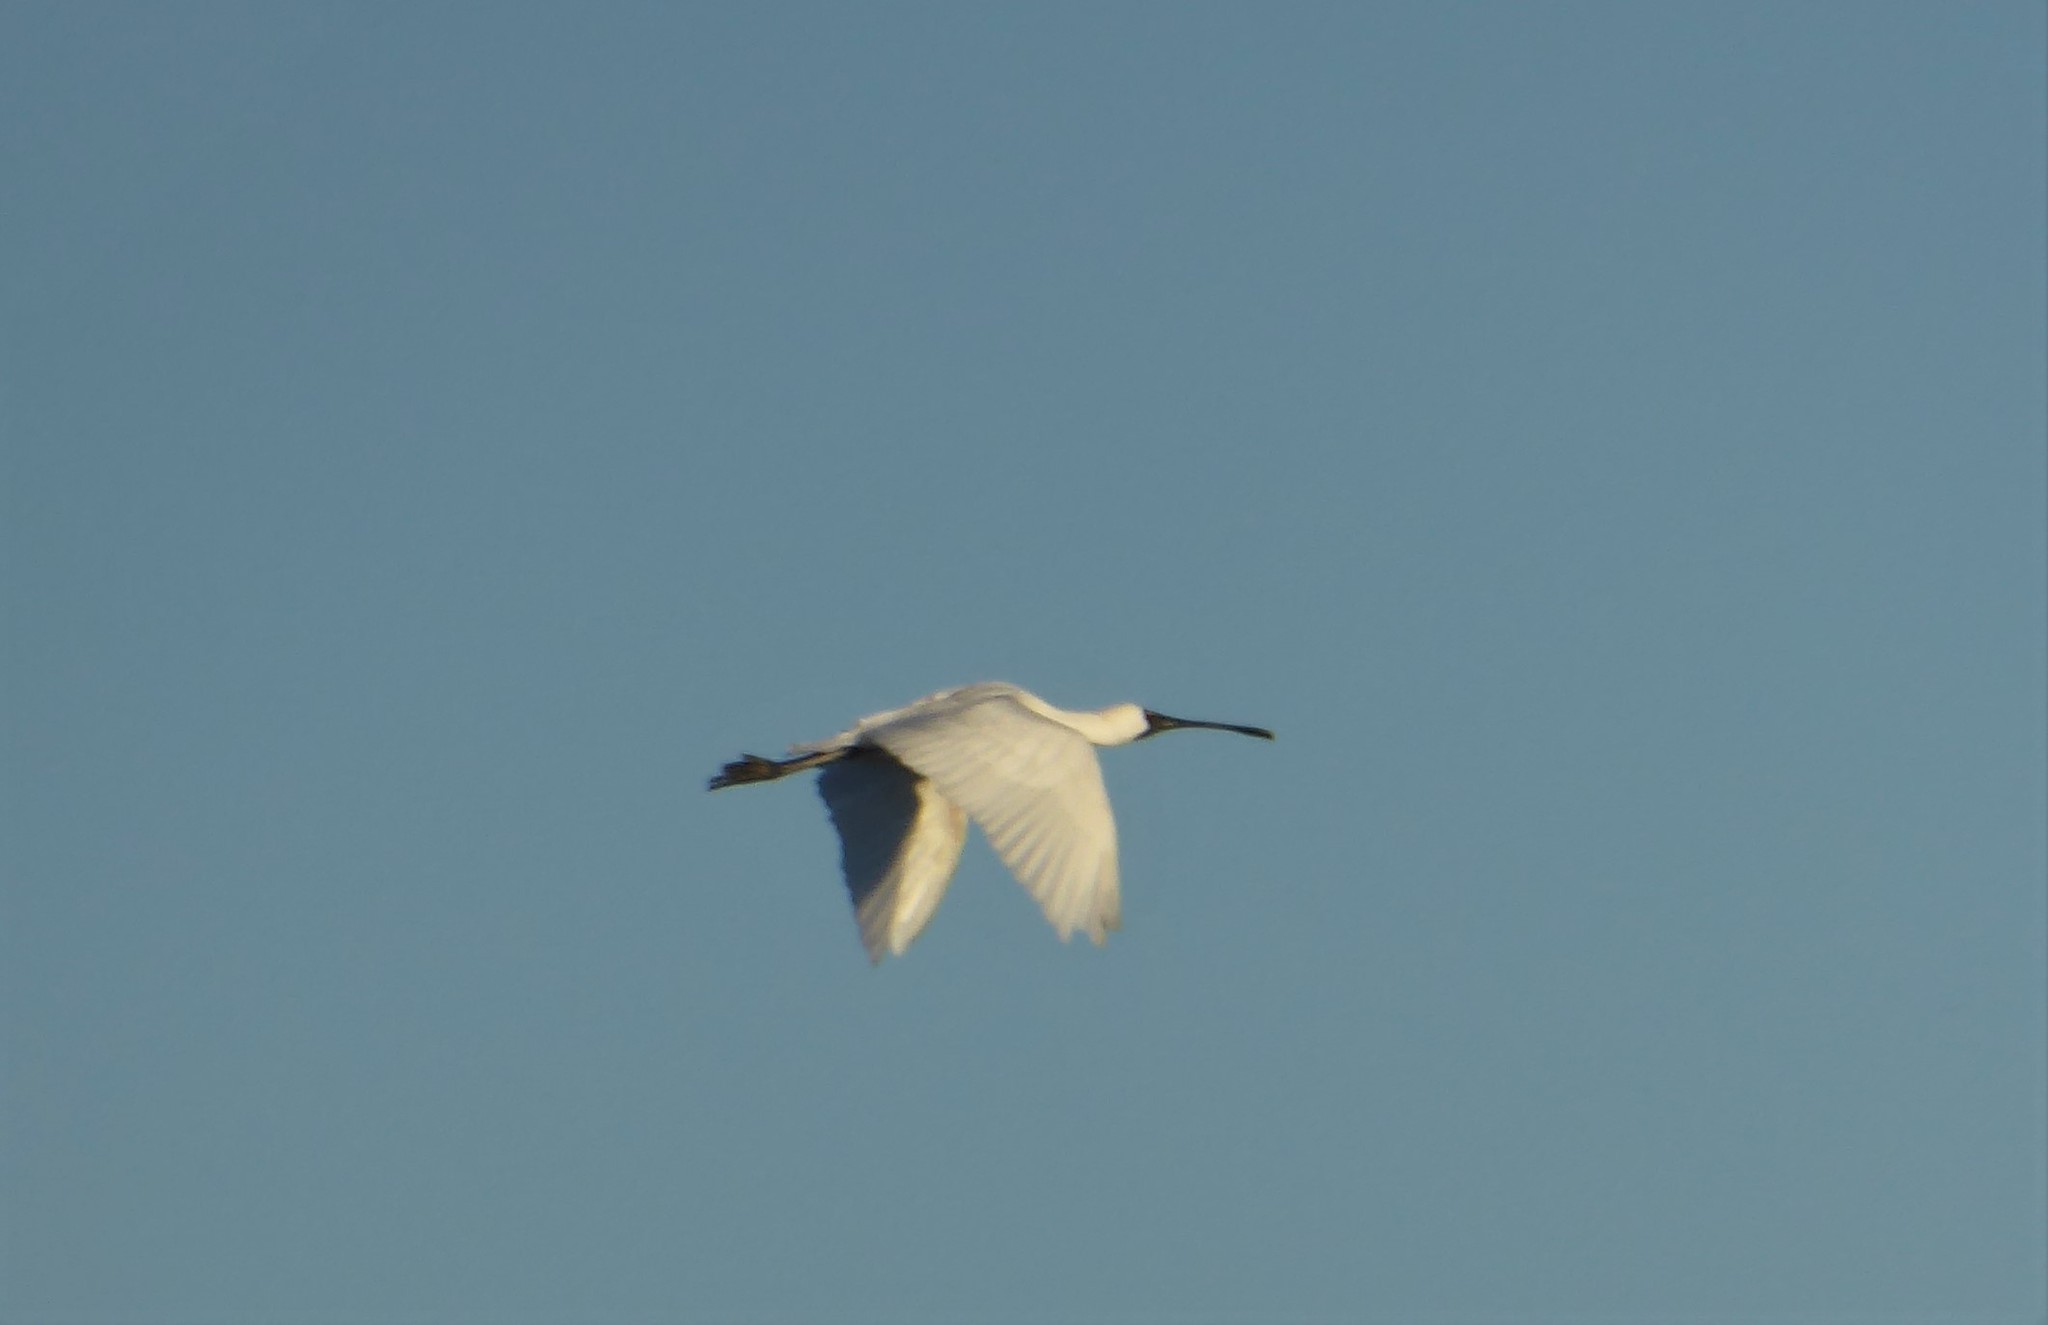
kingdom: Animalia
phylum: Chordata
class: Aves
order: Pelecaniformes
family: Threskiornithidae
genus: Platalea
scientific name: Platalea regia
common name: Royal spoonbill
